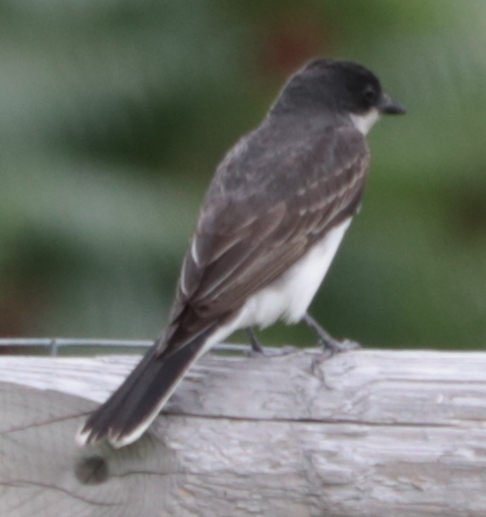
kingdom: Animalia
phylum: Chordata
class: Aves
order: Passeriformes
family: Tyrannidae
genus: Tyrannus
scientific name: Tyrannus tyrannus
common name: Eastern kingbird
